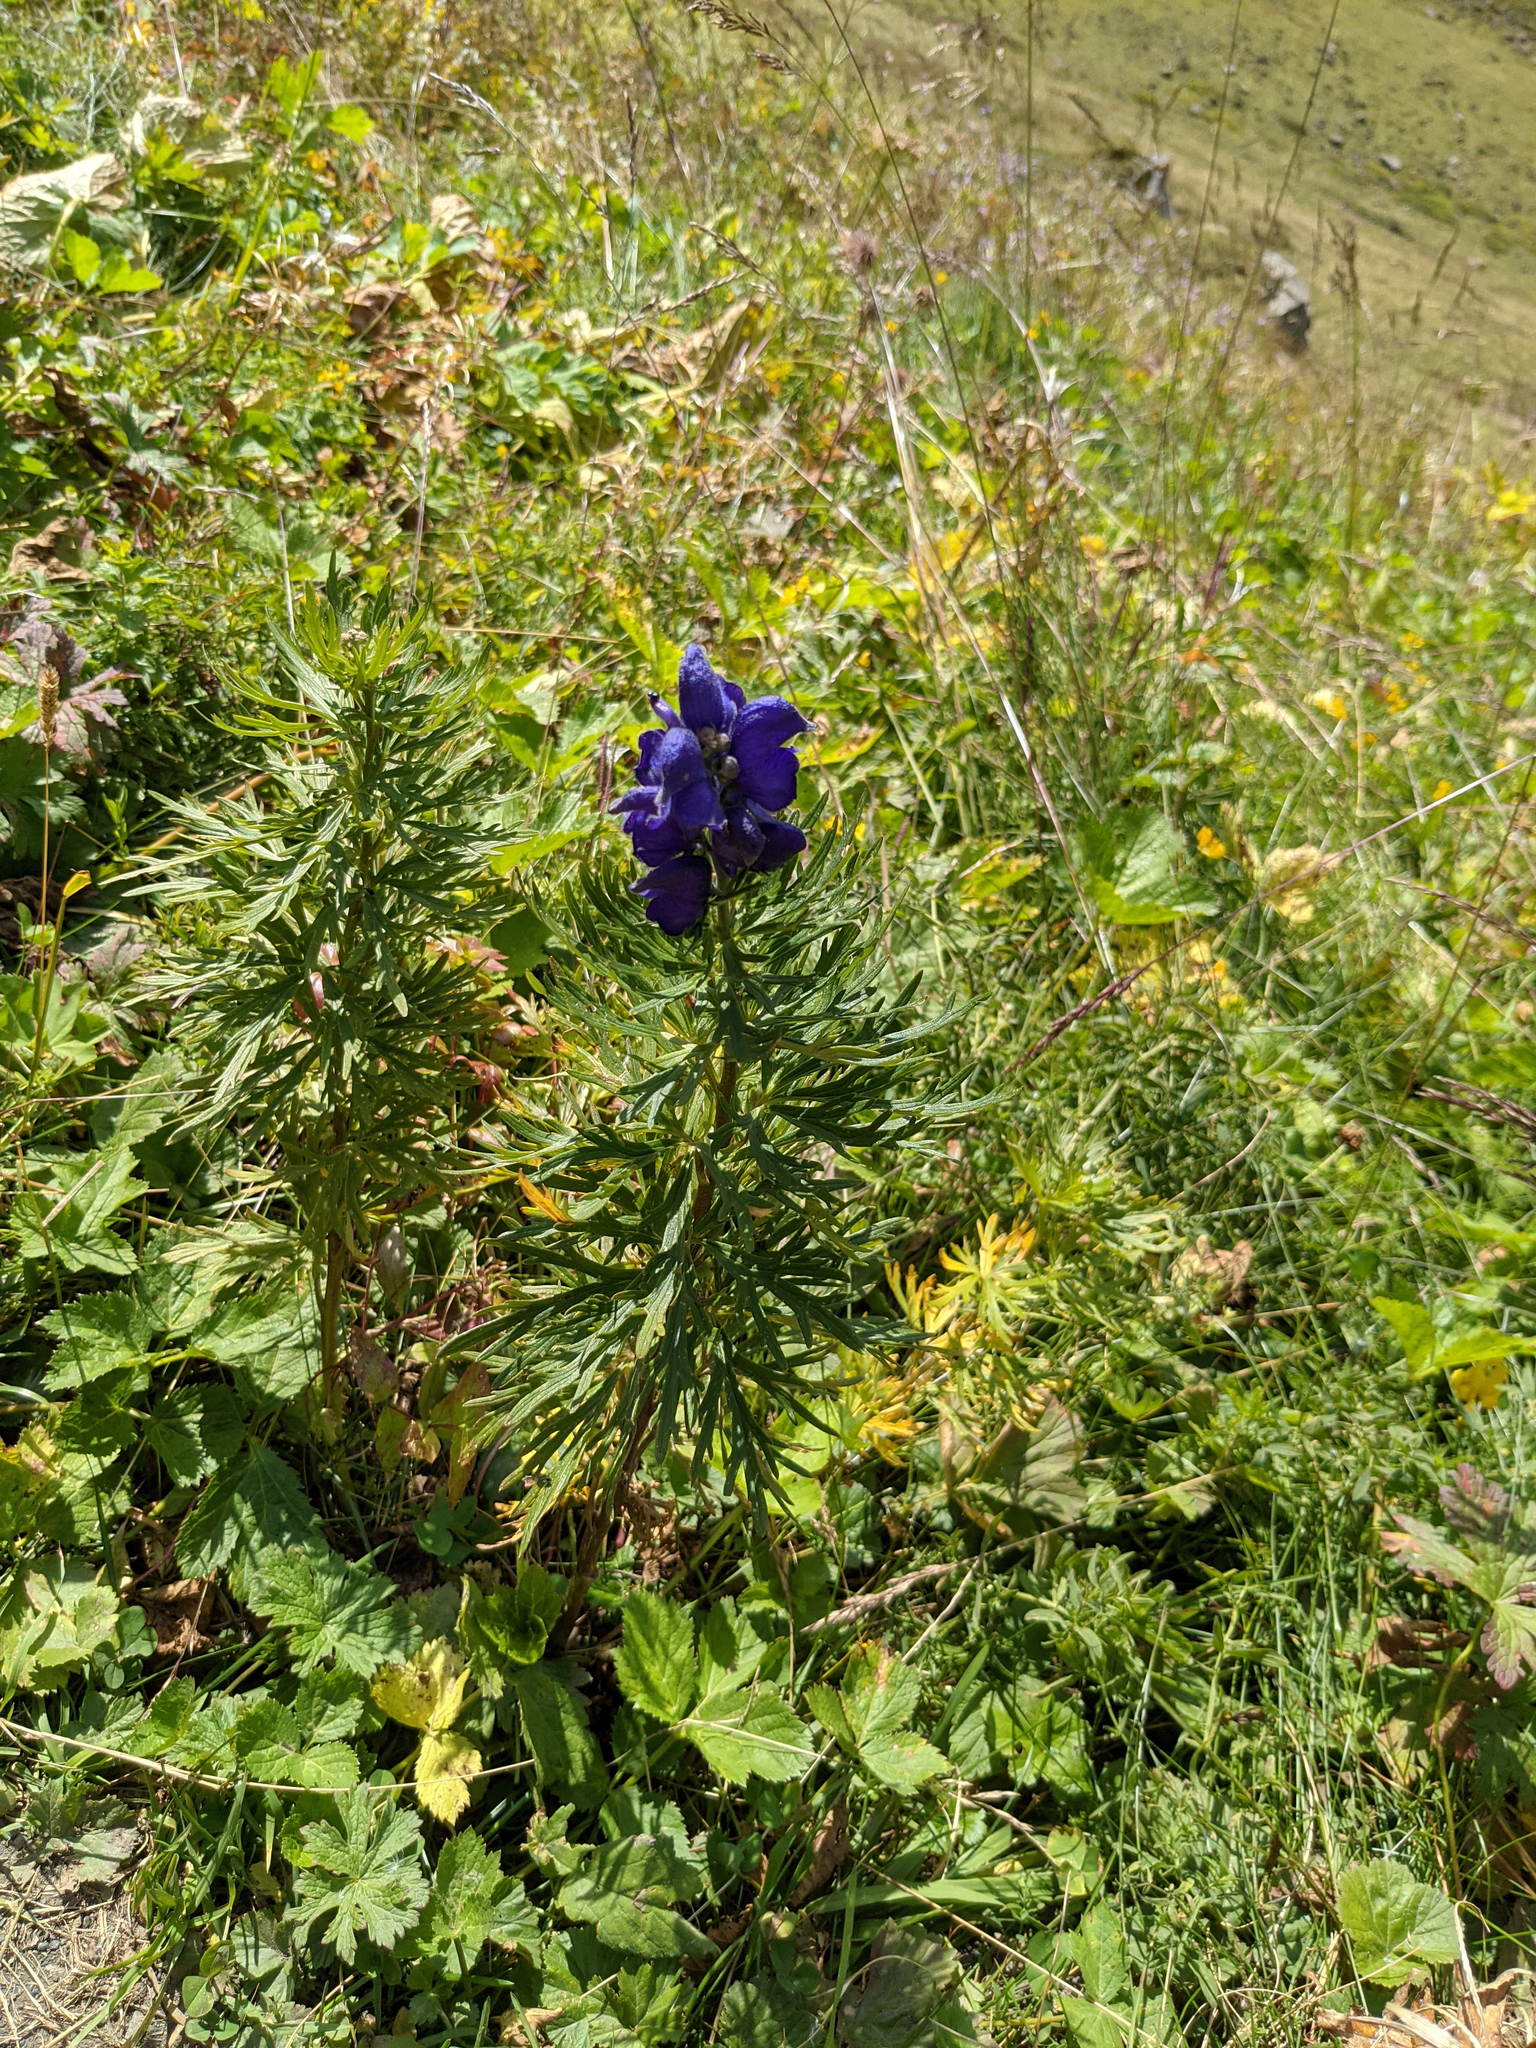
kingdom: Plantae
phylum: Tracheophyta
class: Magnoliopsida
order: Ranunculales
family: Ranunculaceae
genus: Aconitum
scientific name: Aconitum napellus
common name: Garden monkshood
